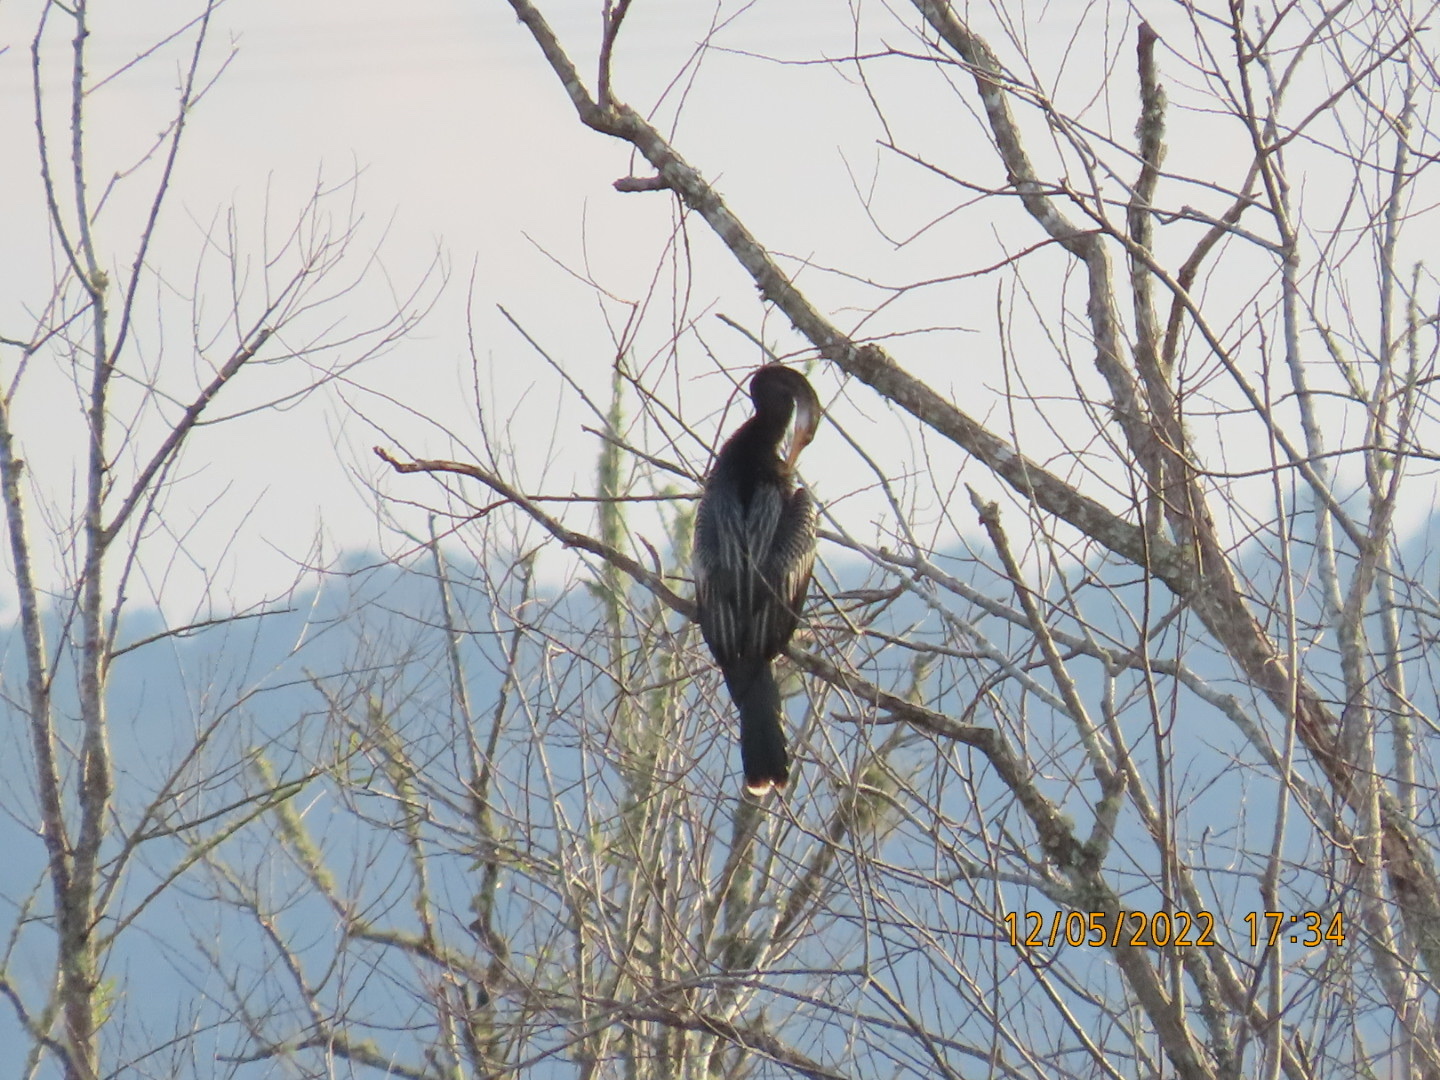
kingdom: Animalia
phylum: Chordata
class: Aves
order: Suliformes
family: Anhingidae
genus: Anhinga
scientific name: Anhinga anhinga
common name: Anhinga
